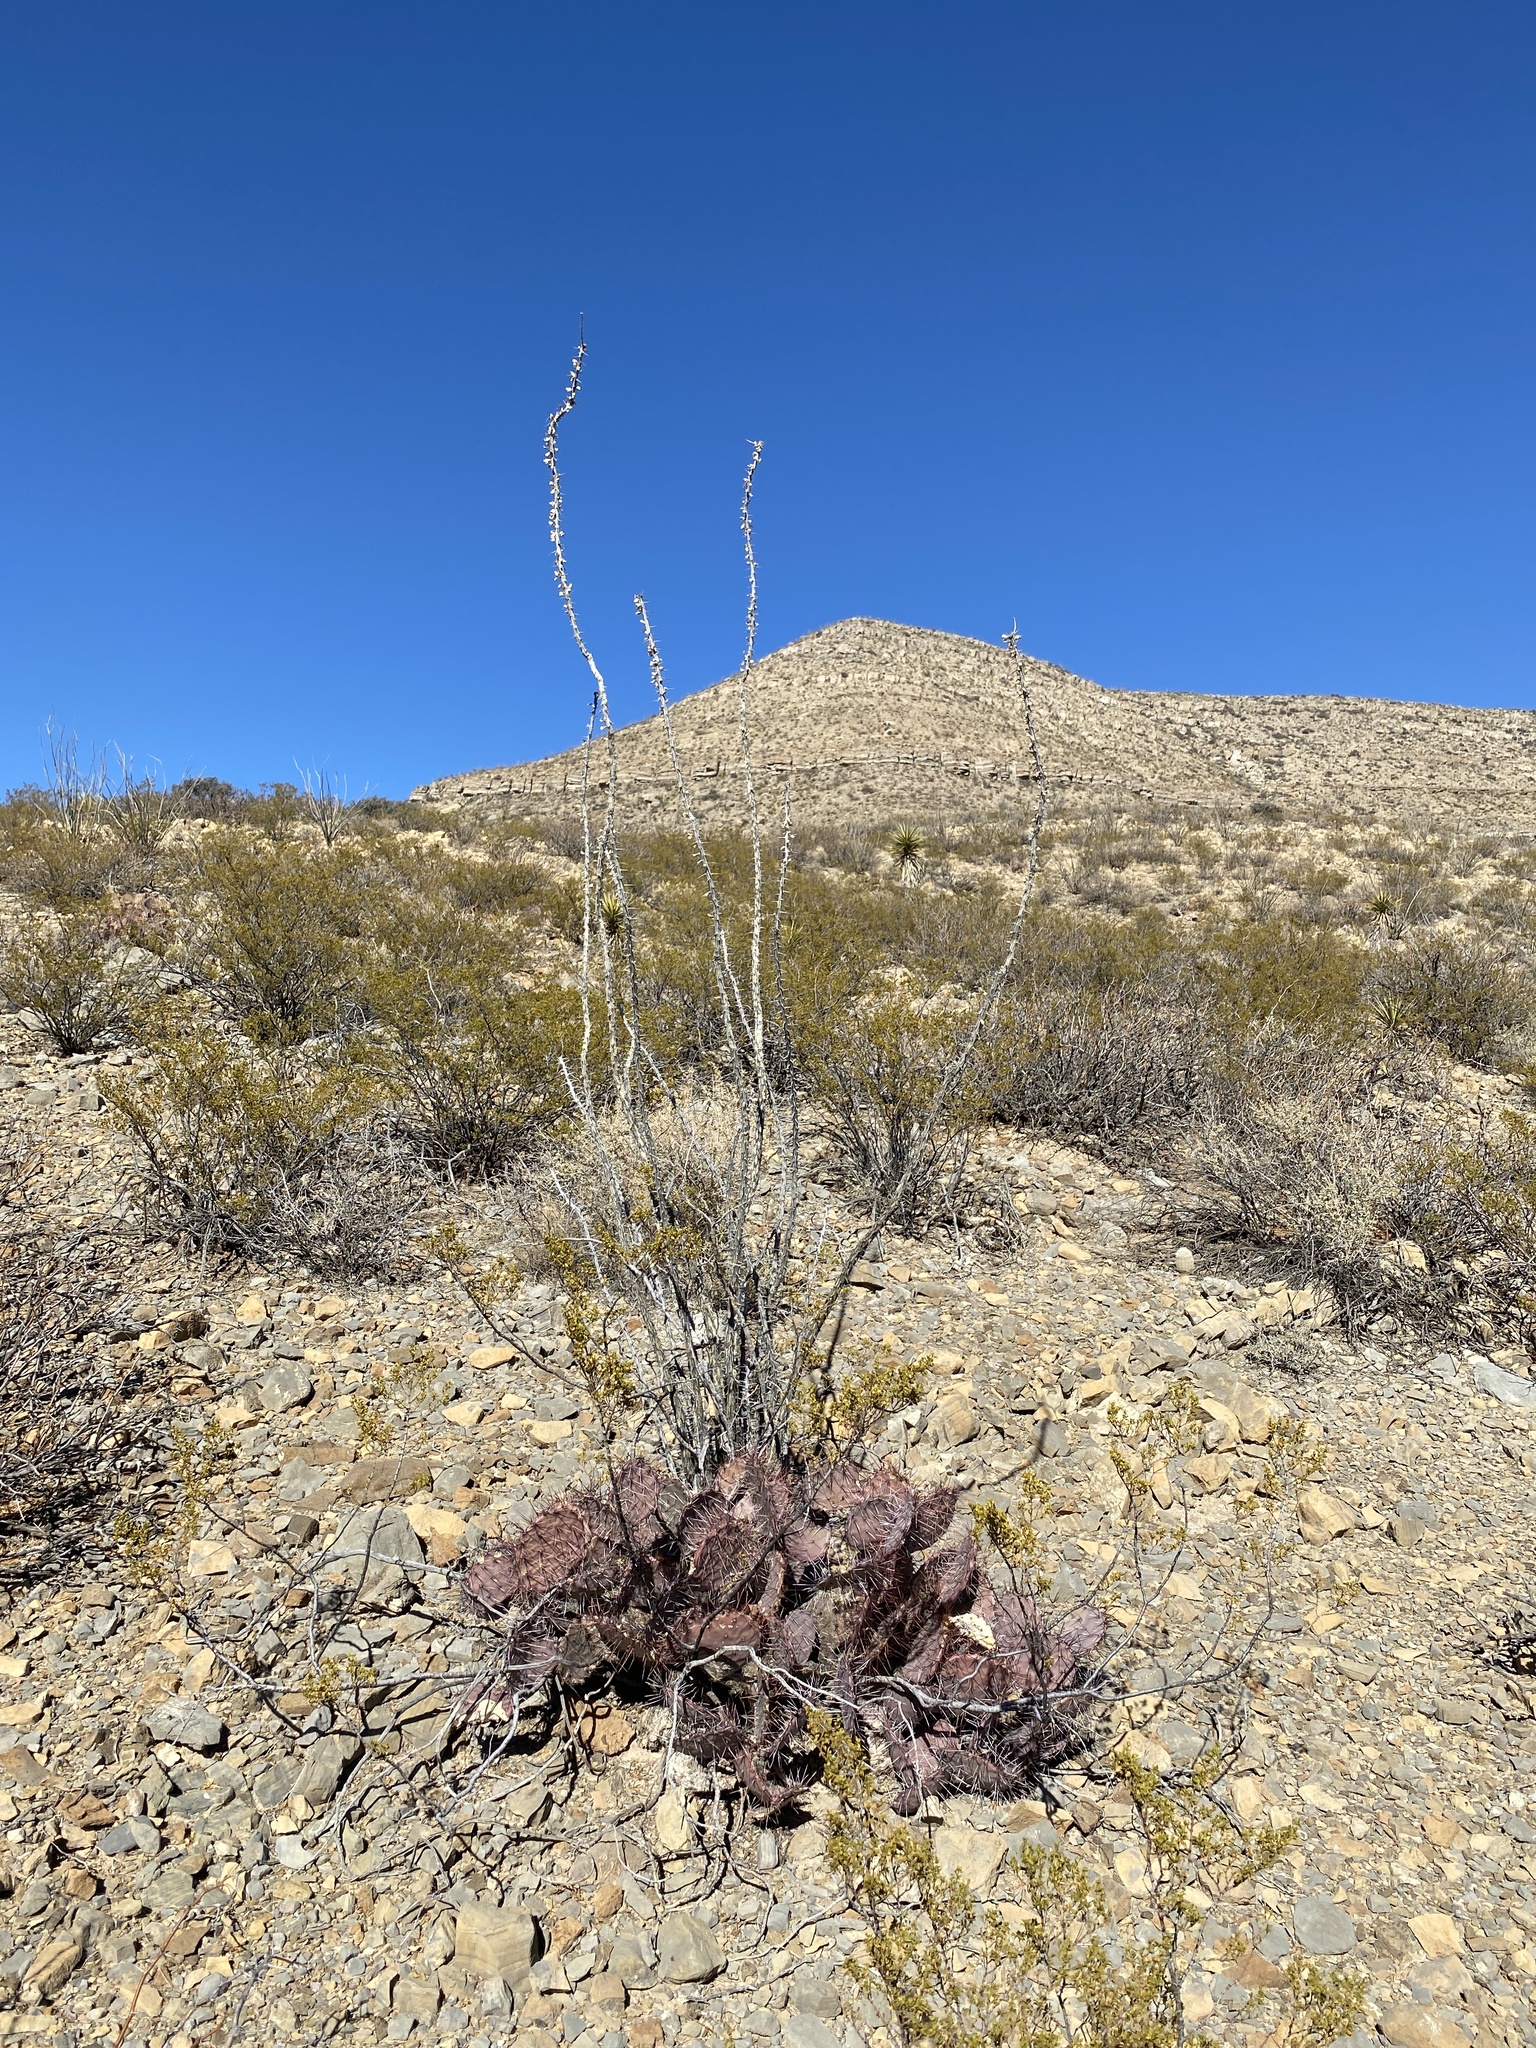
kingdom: Plantae
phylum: Tracheophyta
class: Magnoliopsida
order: Caryophyllales
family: Cactaceae
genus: Opuntia
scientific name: Opuntia macrocentra
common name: Purple prickly-pear
